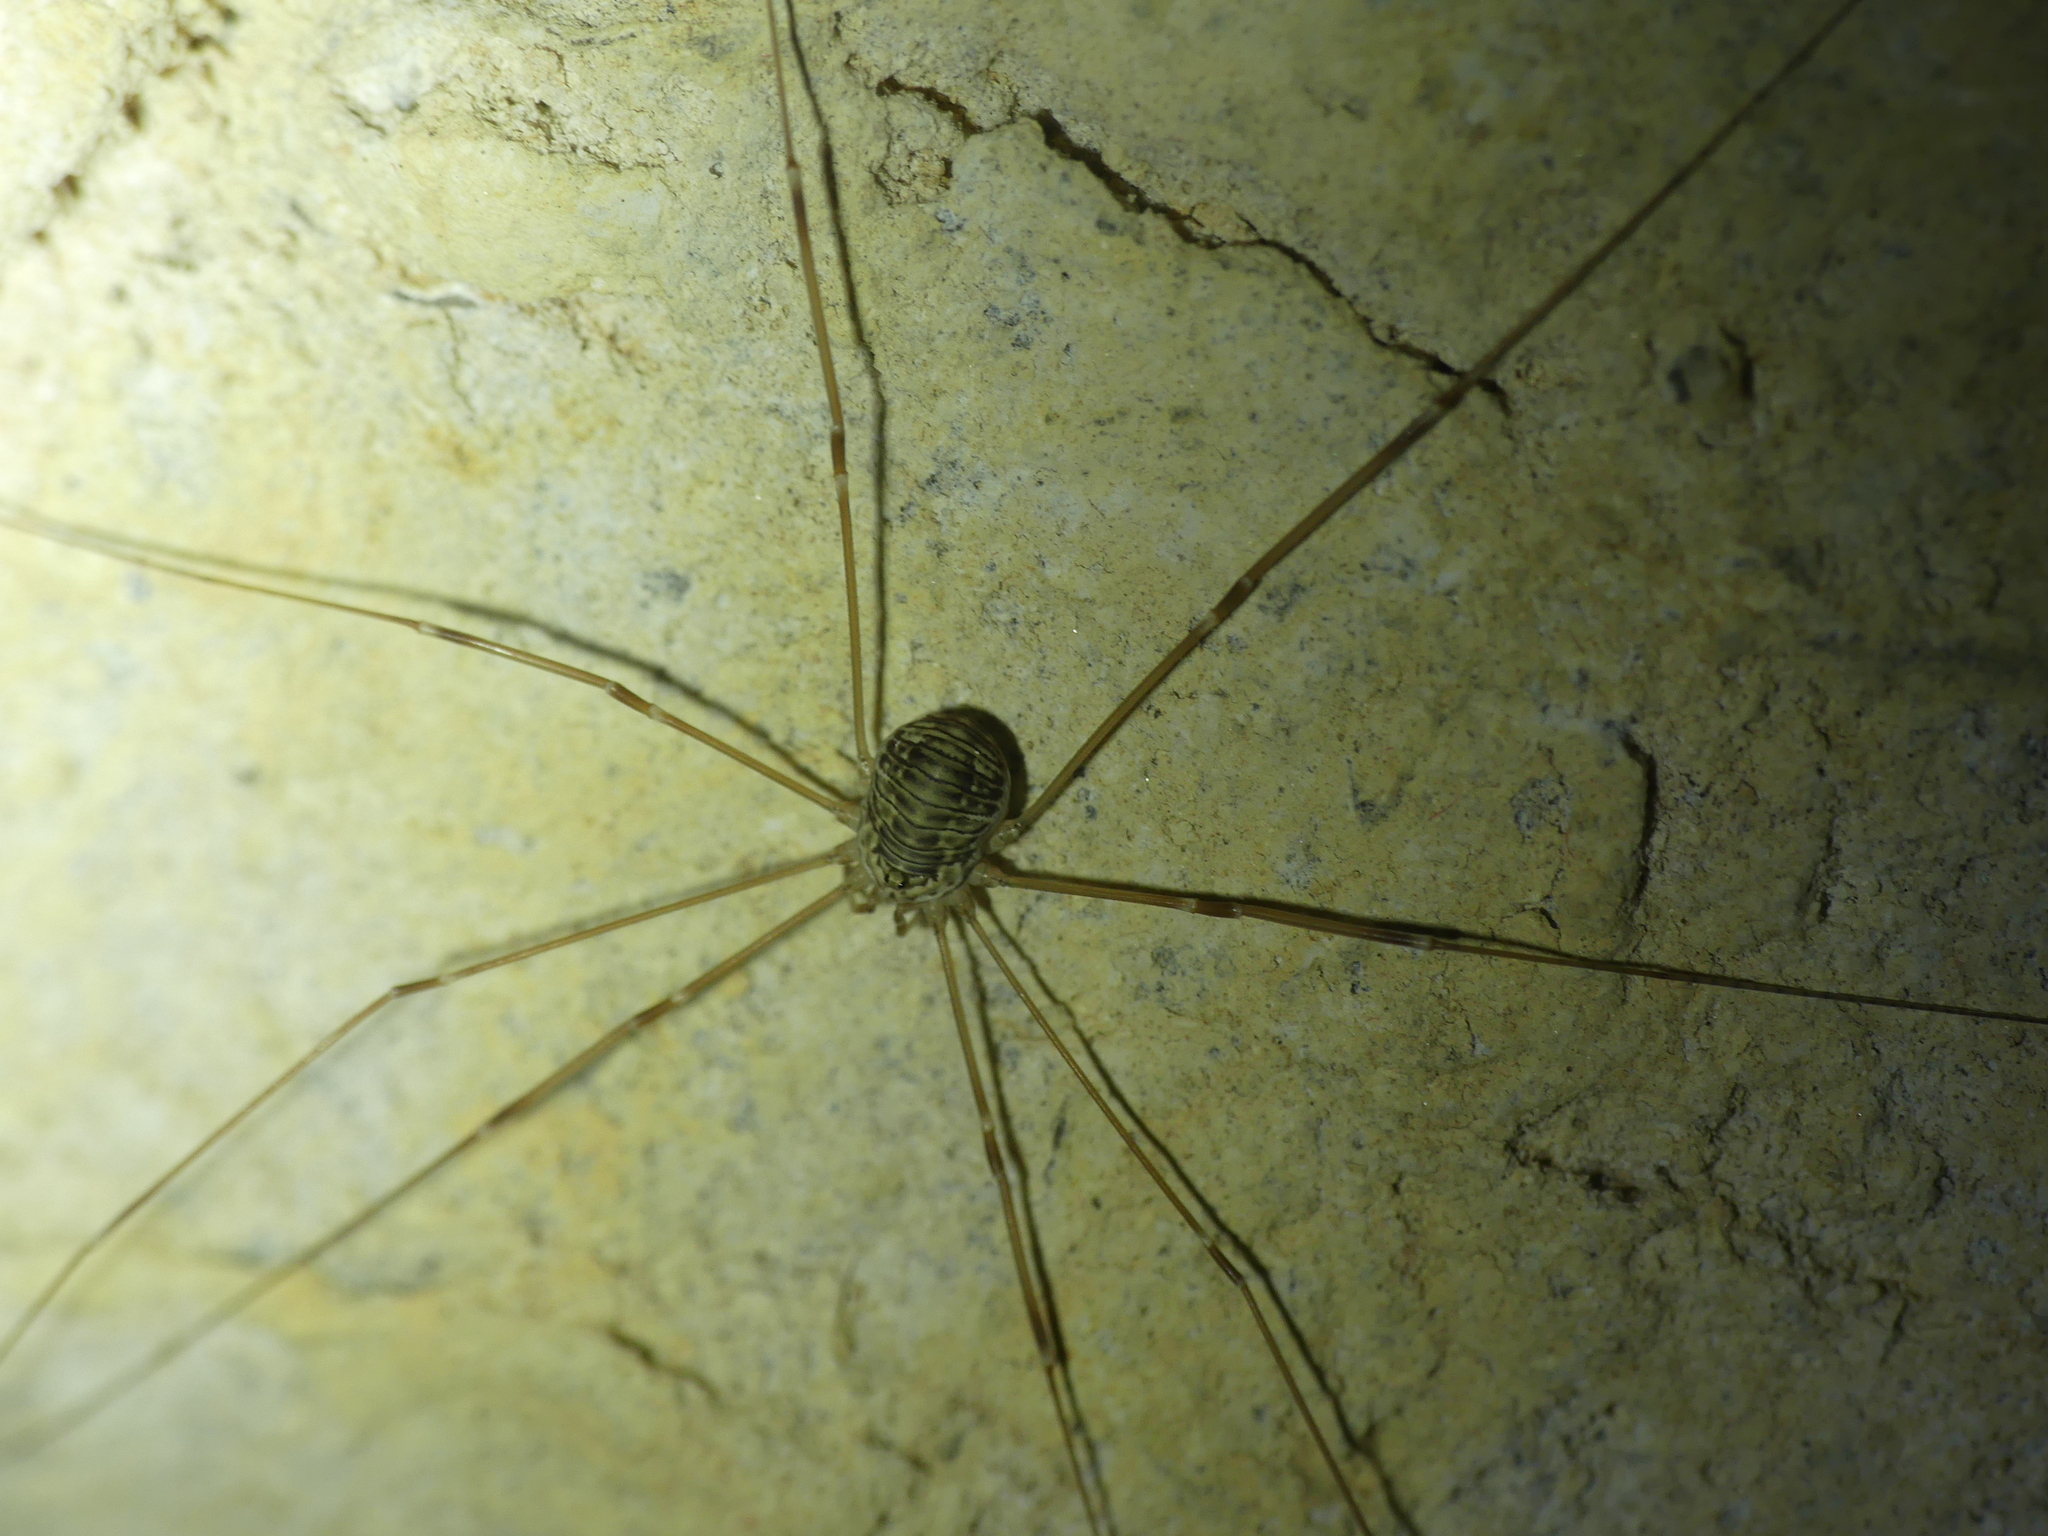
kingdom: Animalia
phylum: Arthropoda
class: Arachnida
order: Opiliones
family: Sclerosomatidae
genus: Leiobunum
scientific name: Leiobunum limbatum
